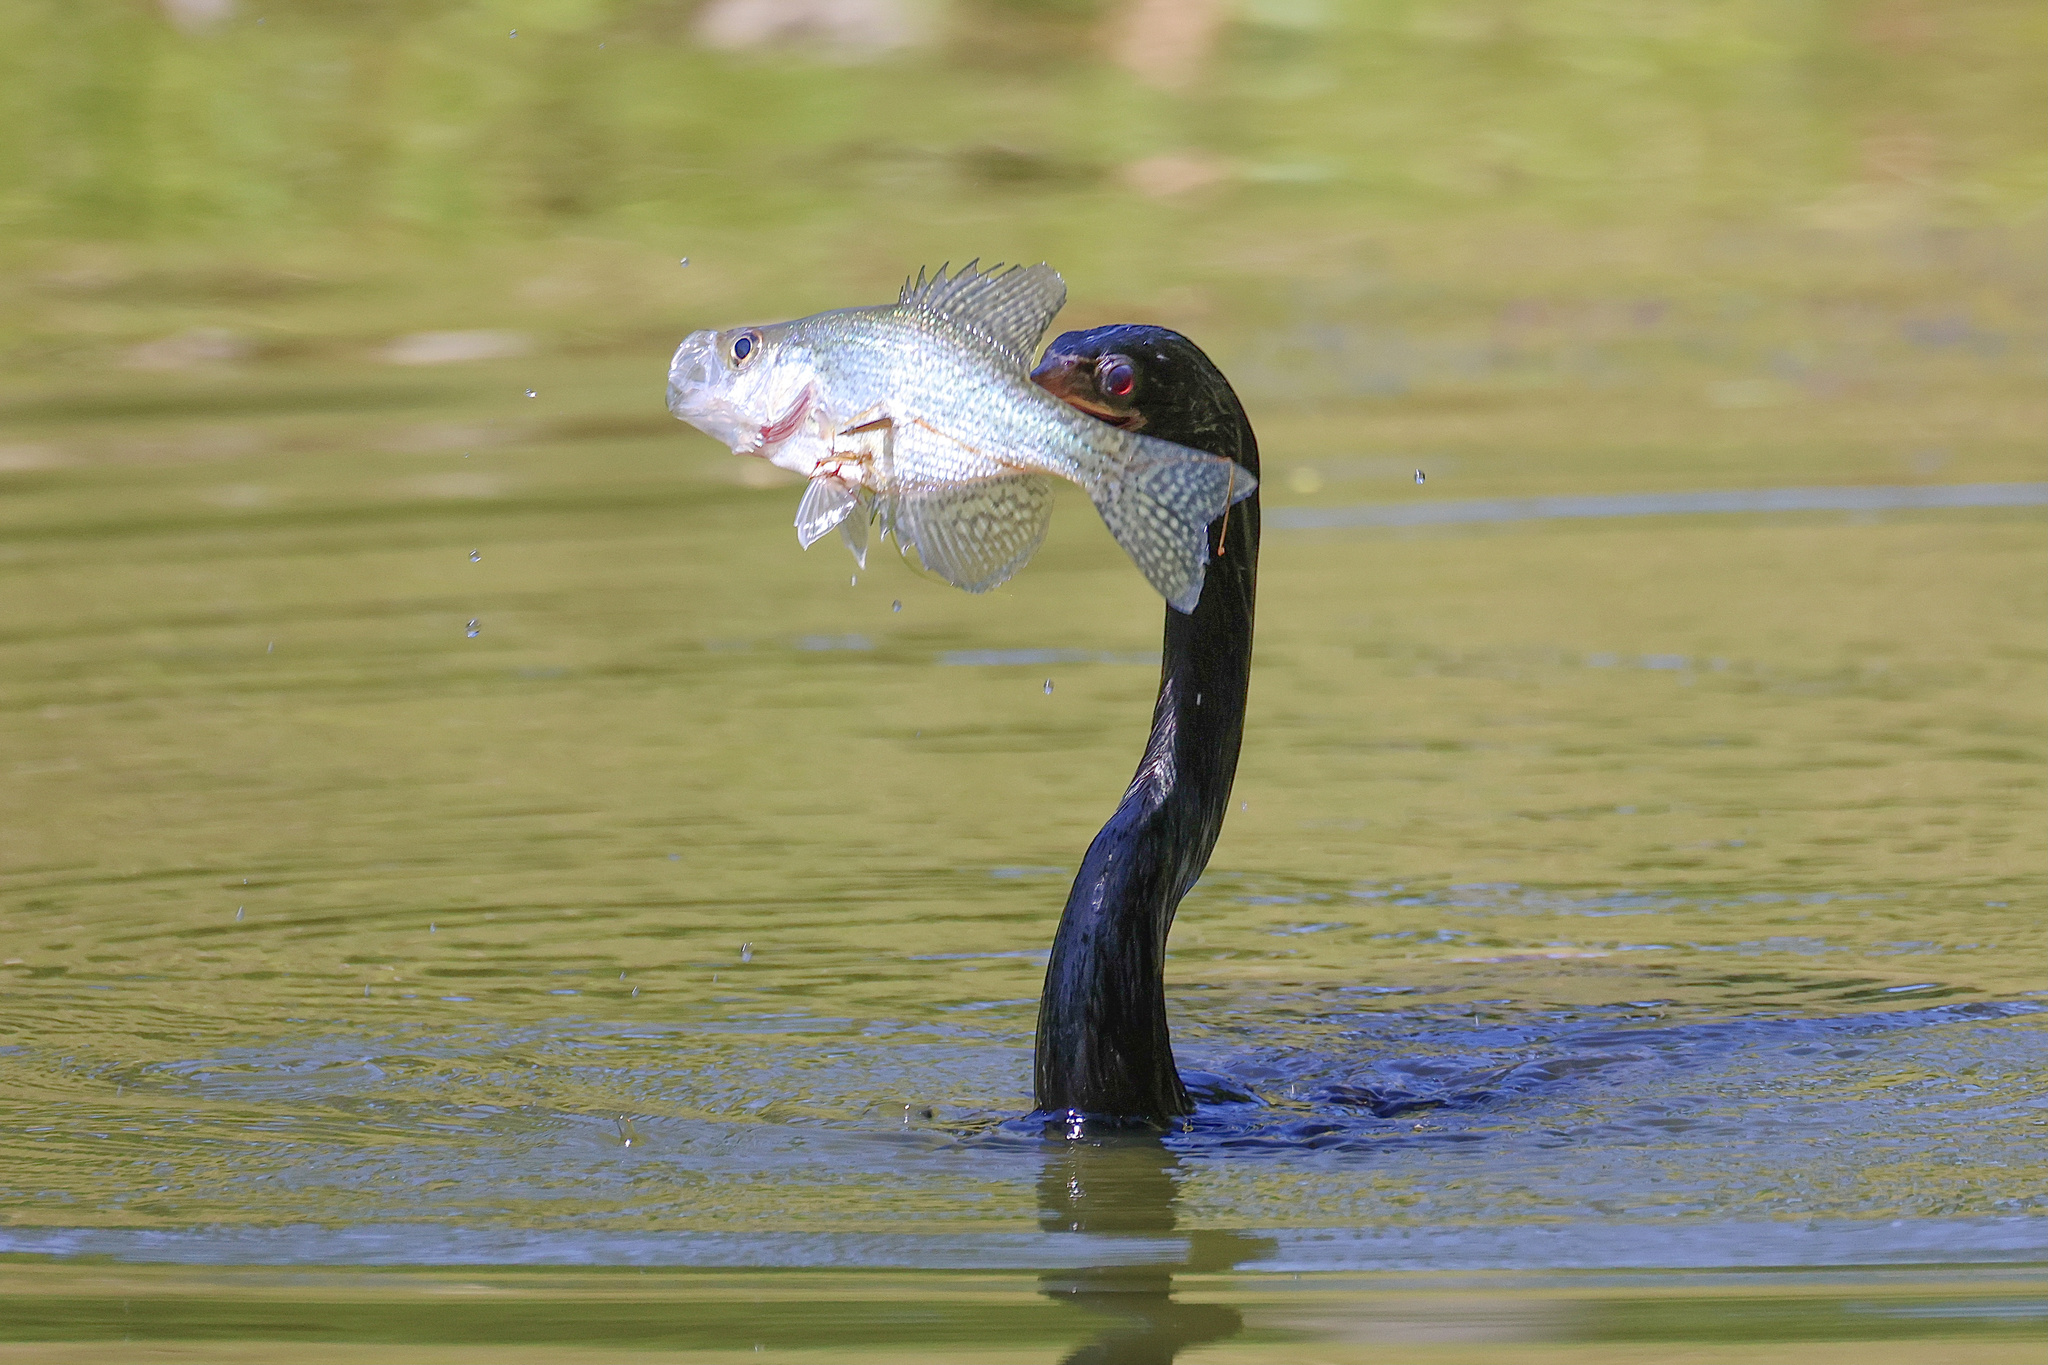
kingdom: Animalia
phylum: Chordata
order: Perciformes
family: Centrarchidae
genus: Pomoxis
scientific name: Pomoxis nigromaculatus
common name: Black crappie
